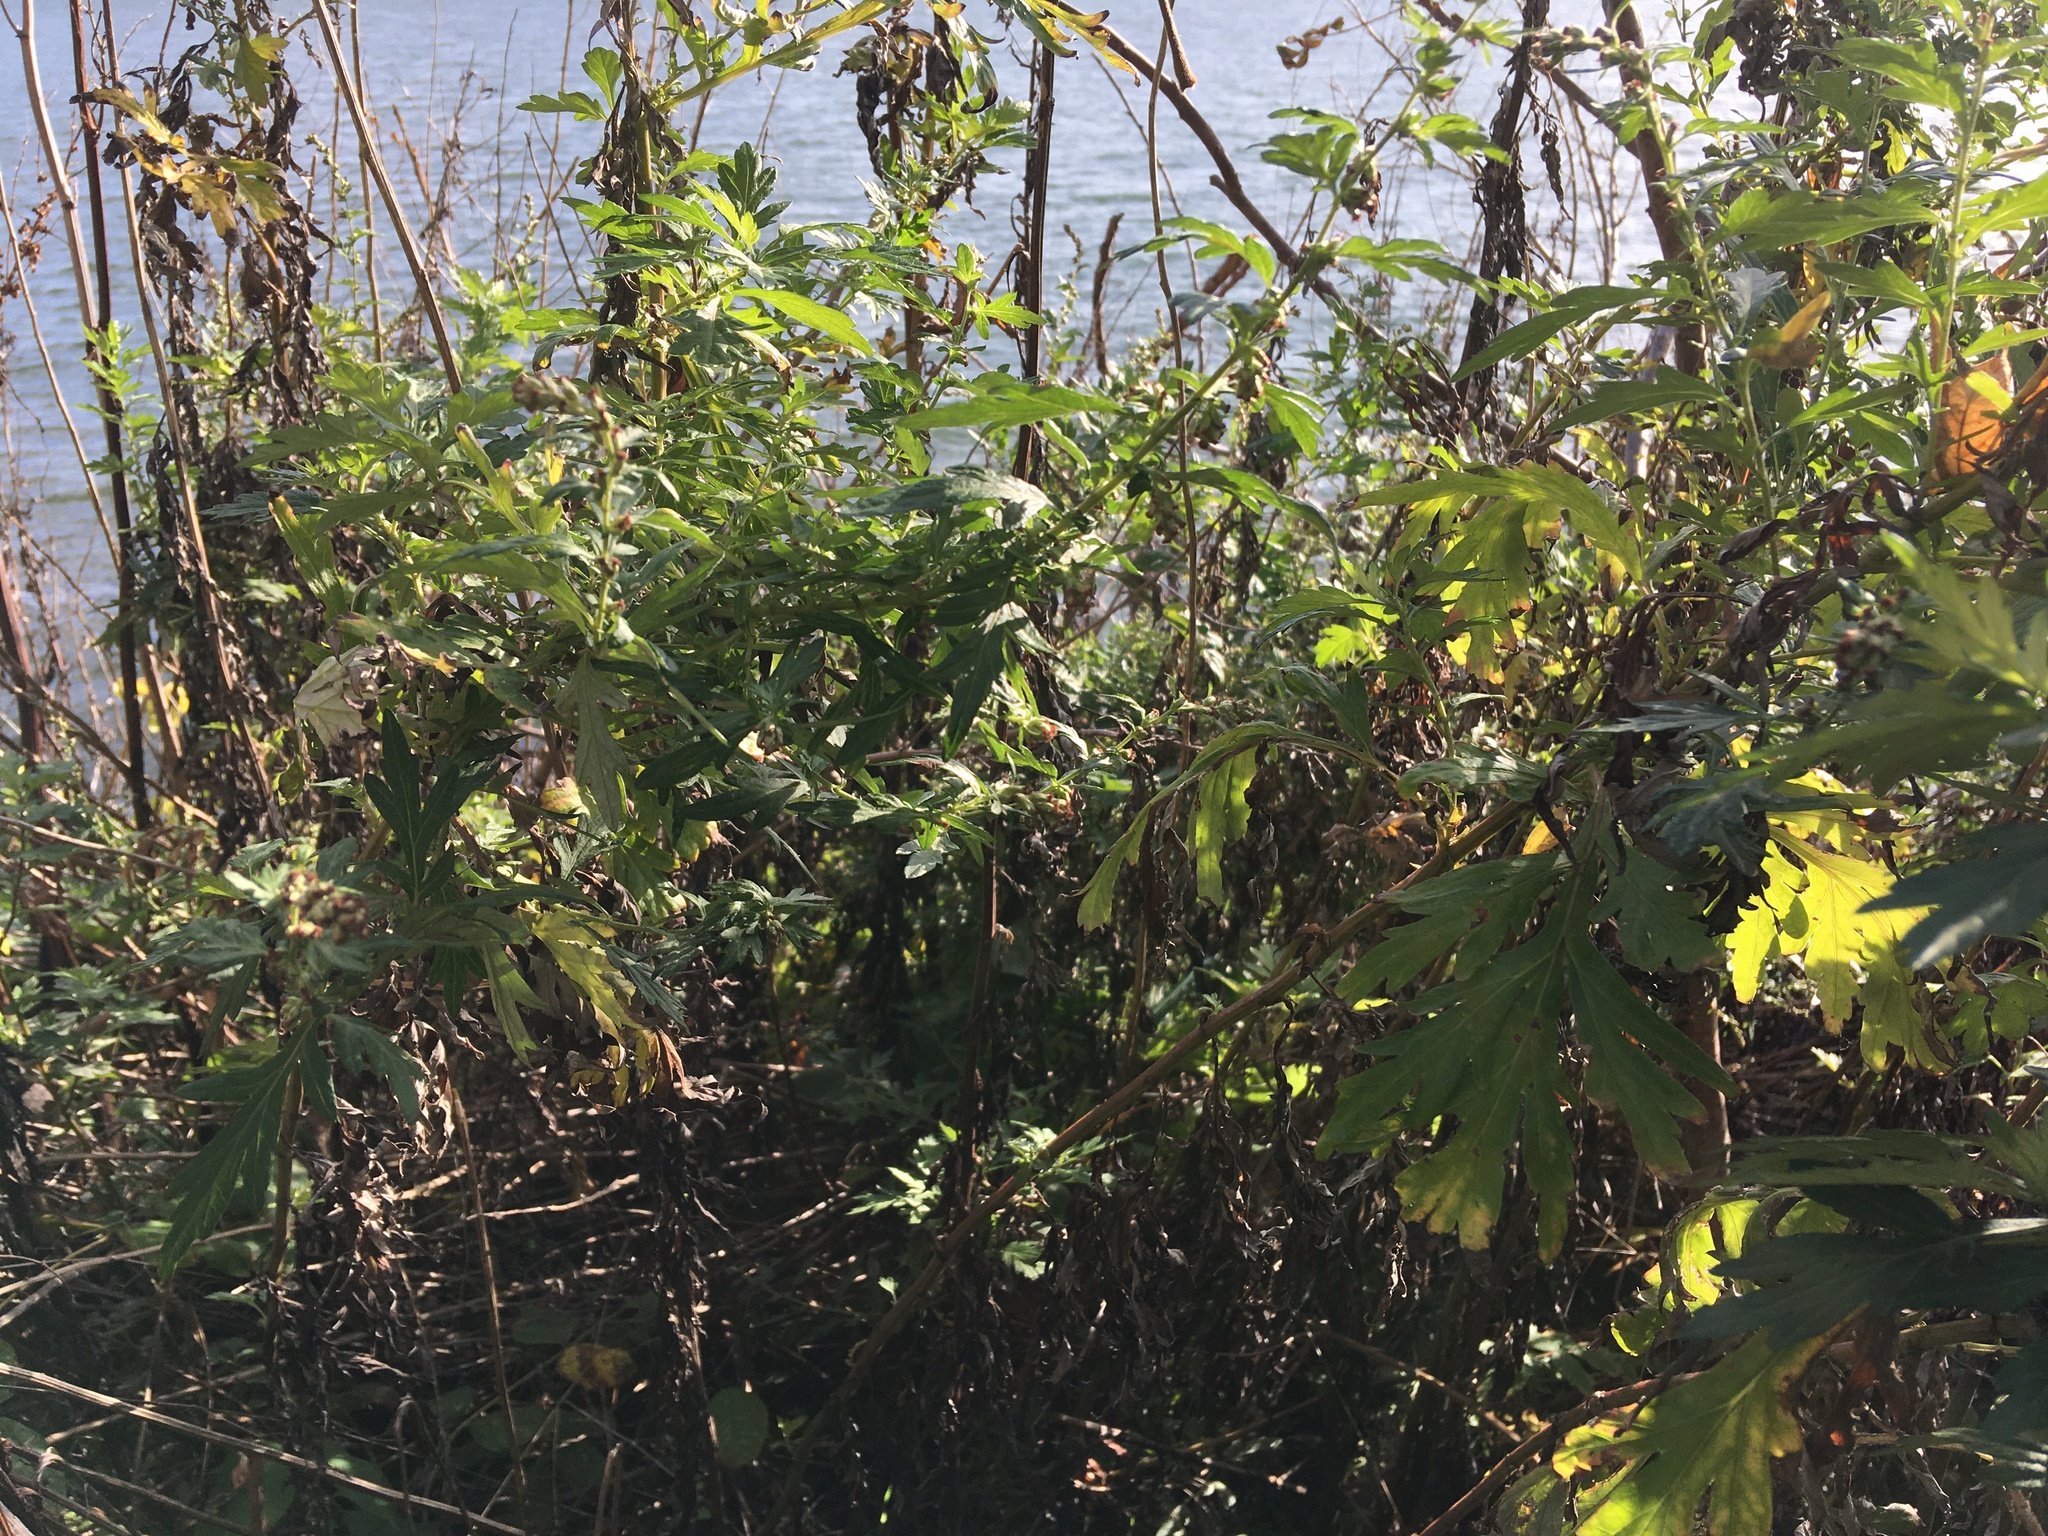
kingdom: Plantae
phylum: Tracheophyta
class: Magnoliopsida
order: Asterales
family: Asteraceae
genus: Artemisia
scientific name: Artemisia vulgaris
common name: Mugwort
